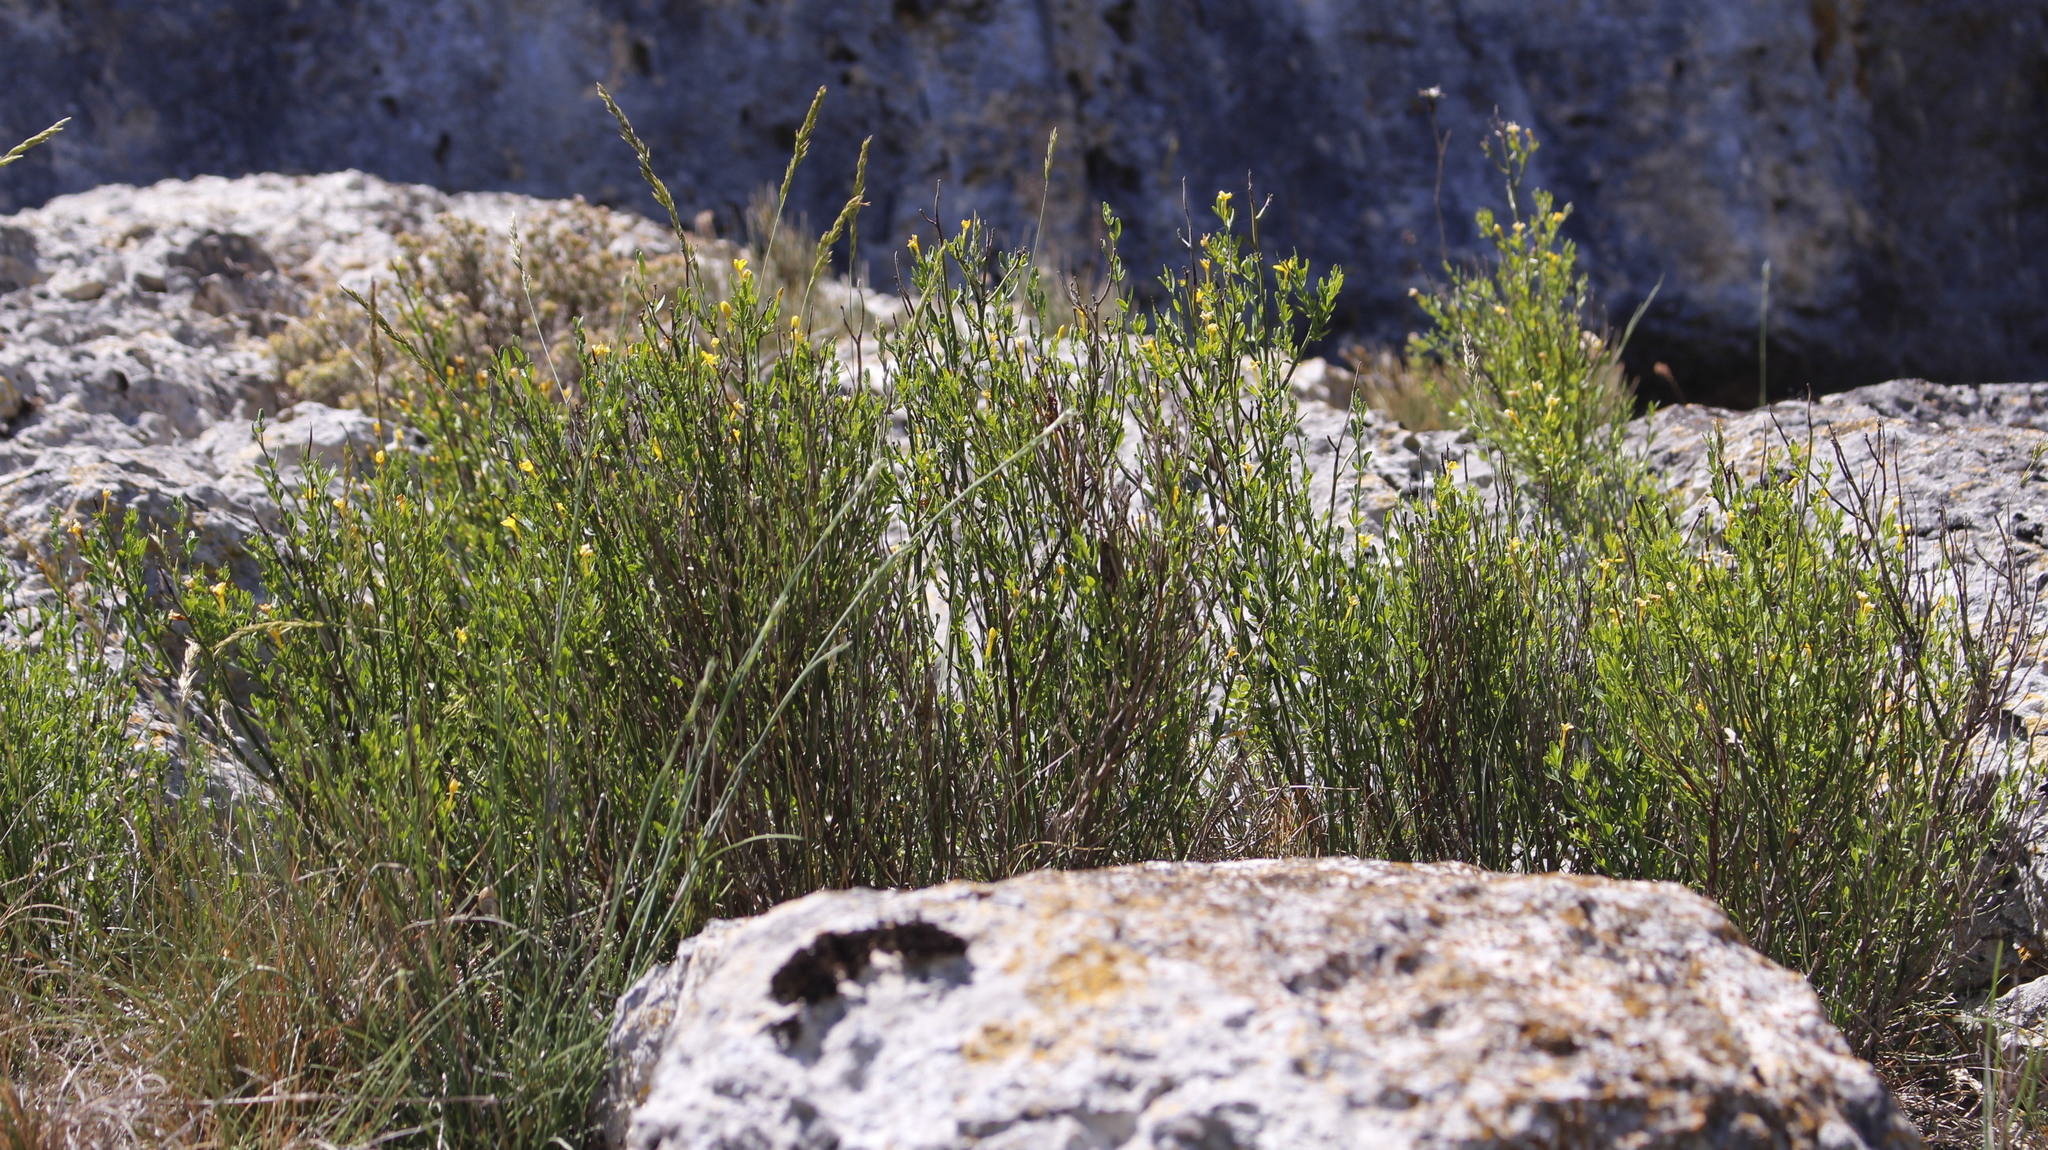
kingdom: Plantae
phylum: Tracheophyta
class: Magnoliopsida
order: Lamiales
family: Oleaceae
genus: Chrysojasminum
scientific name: Chrysojasminum fruticans
